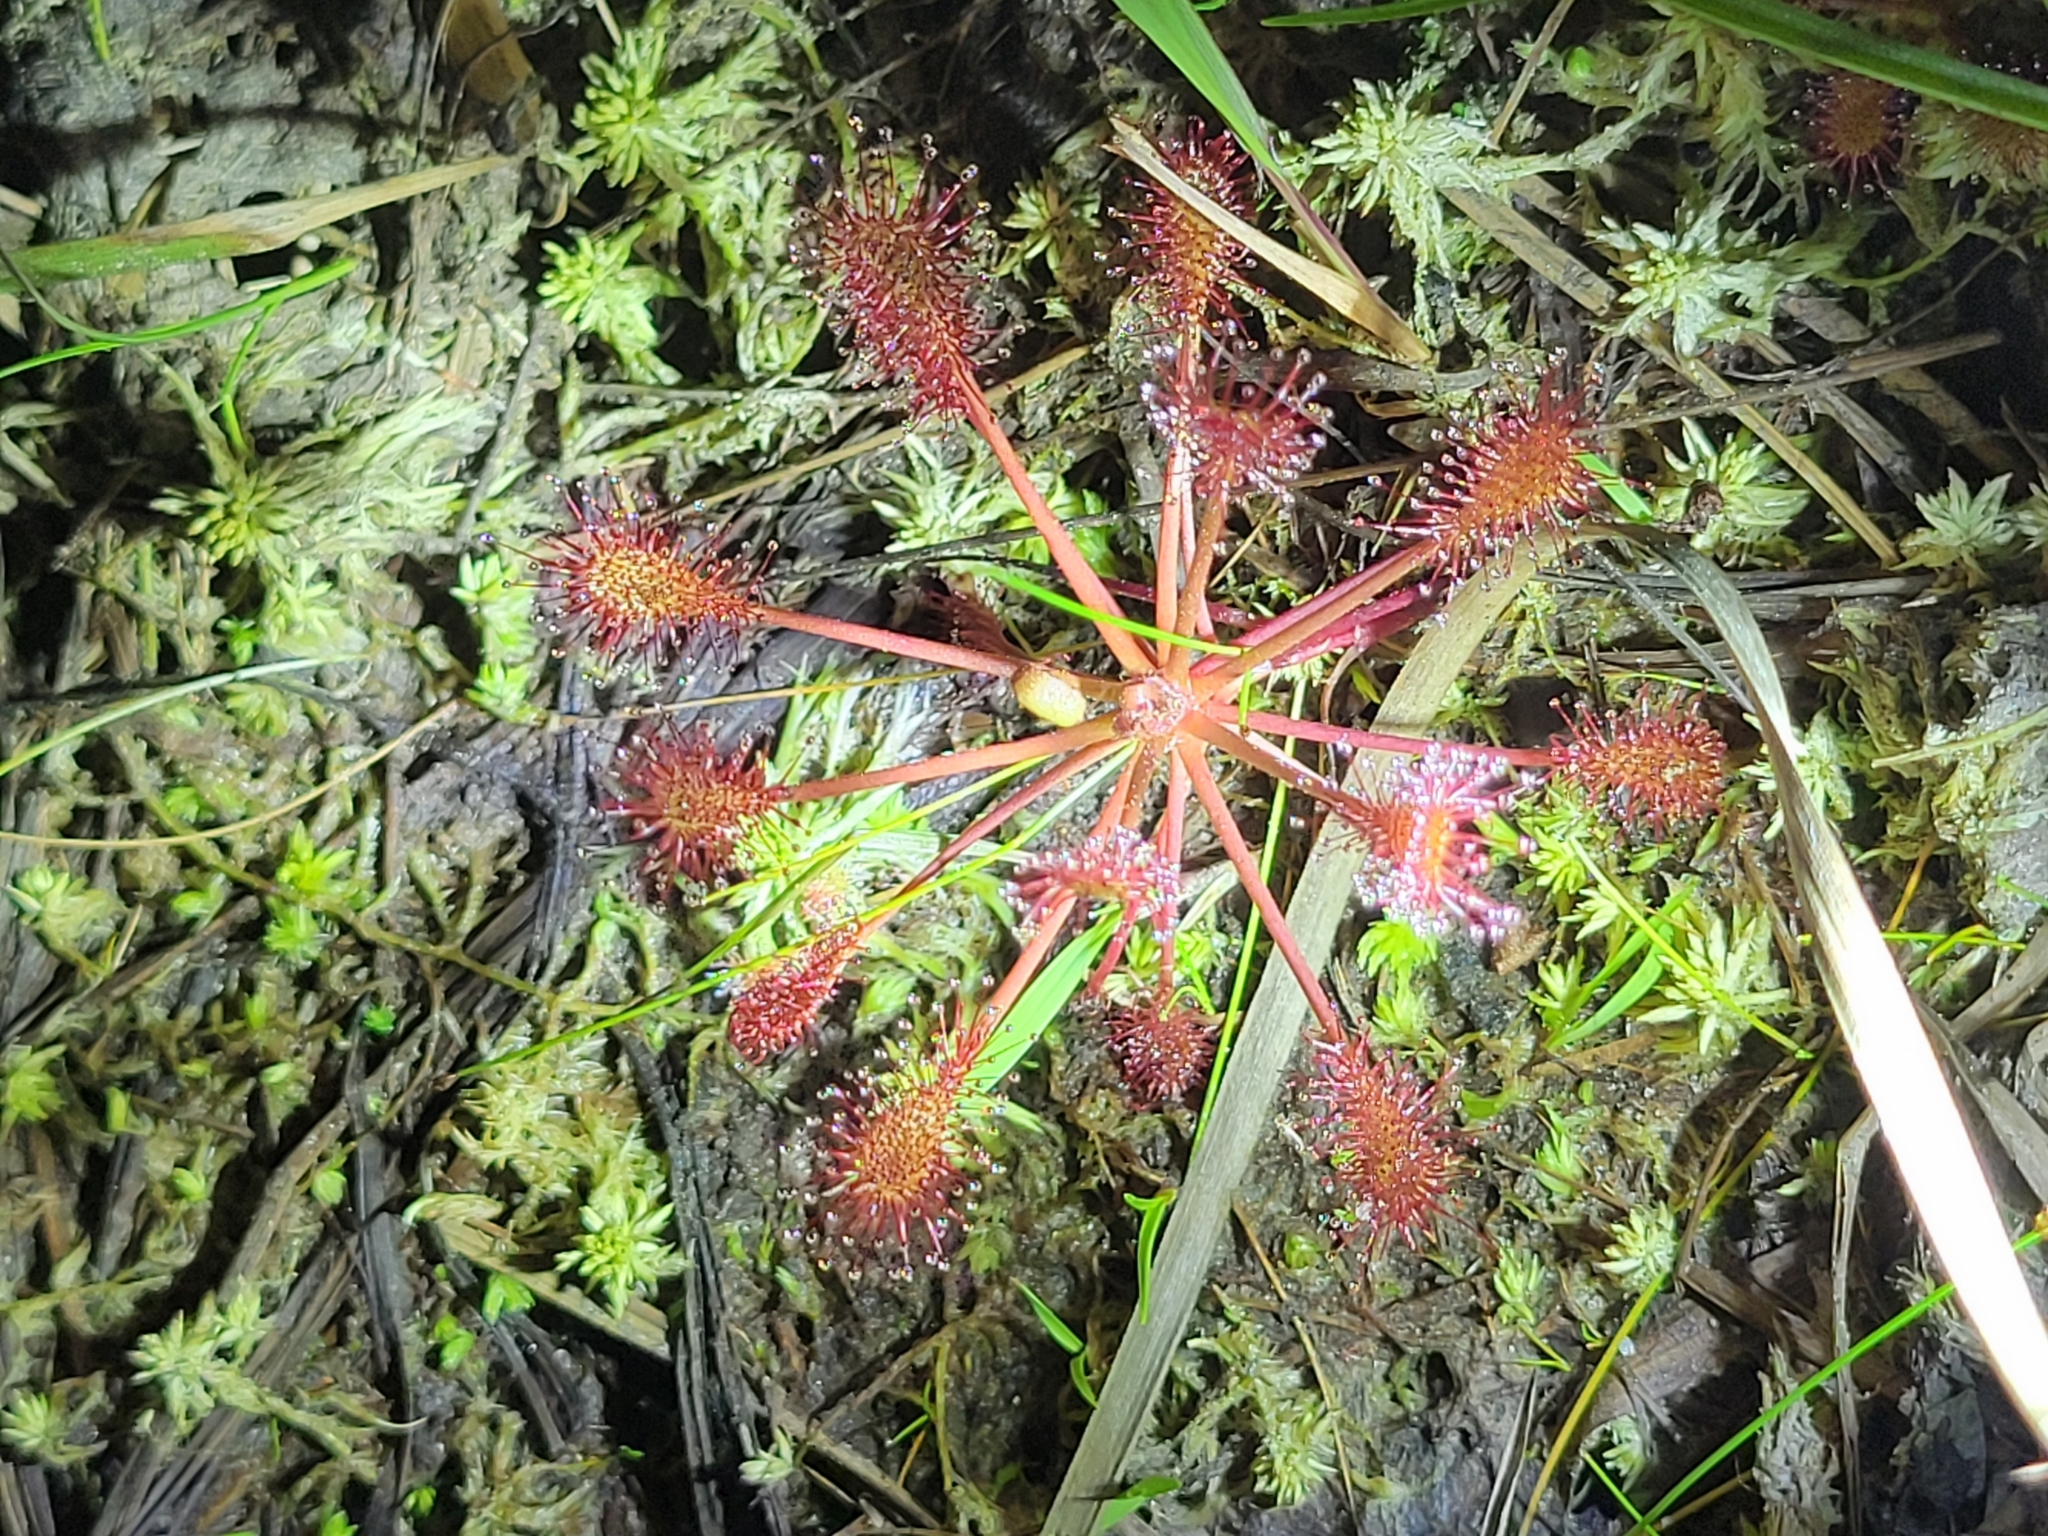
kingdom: Plantae
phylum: Tracheophyta
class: Magnoliopsida
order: Caryophyllales
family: Droseraceae
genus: Drosera
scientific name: Drosera intermedia
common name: Oblong-leaved sundew
